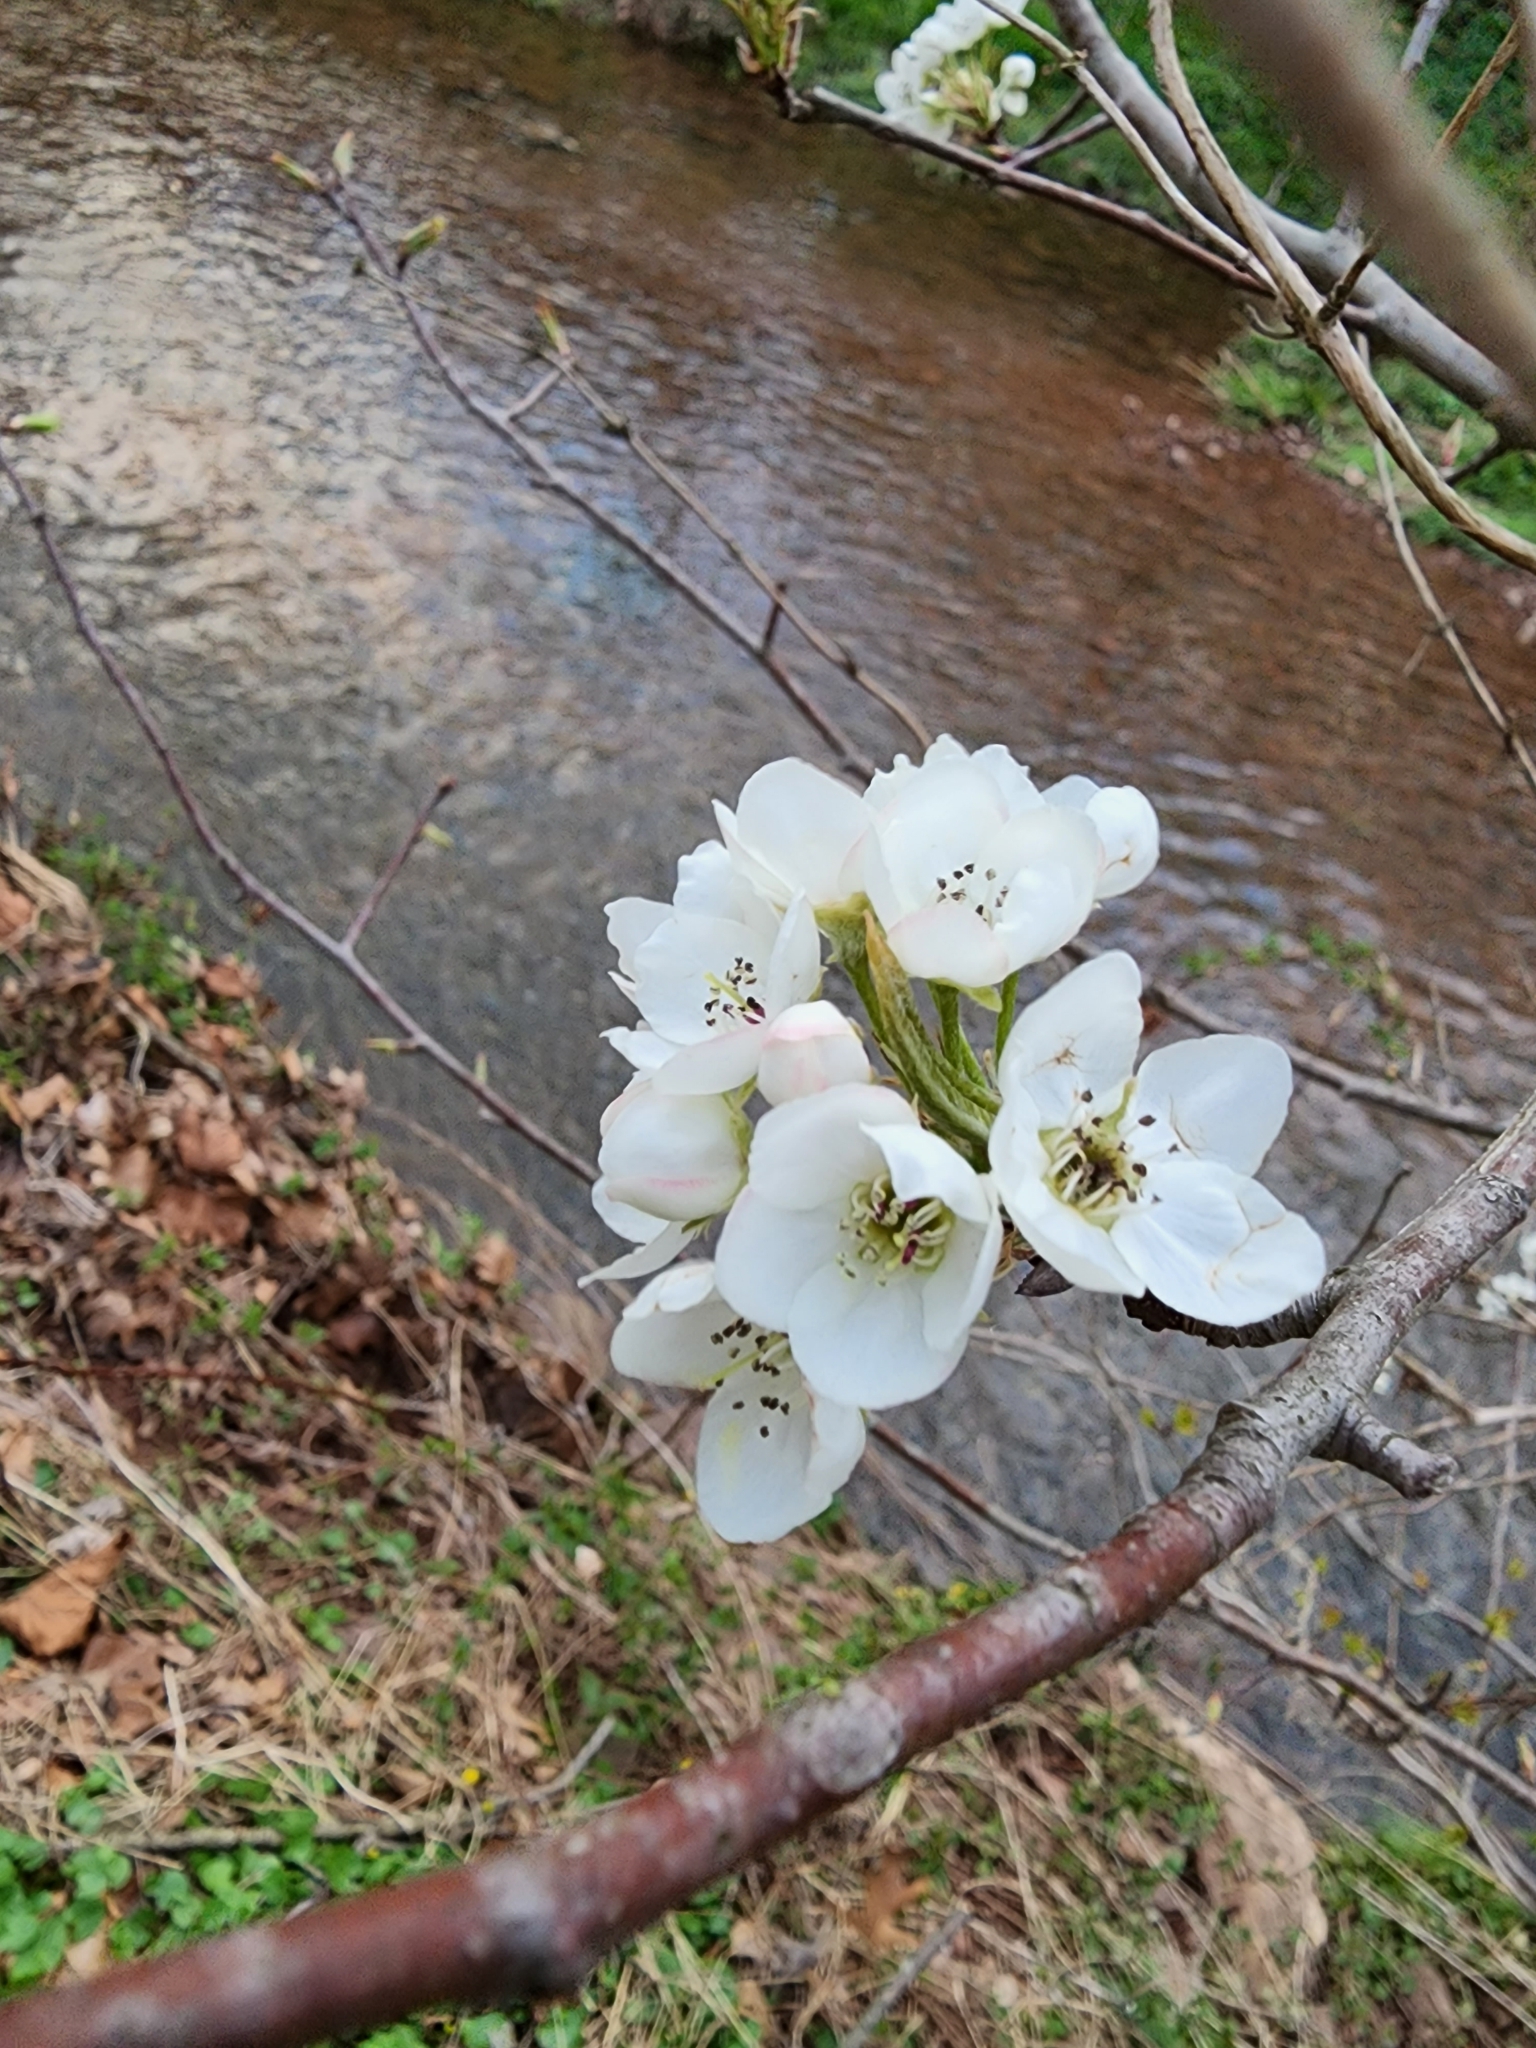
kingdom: Plantae
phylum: Tracheophyta
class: Magnoliopsida
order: Rosales
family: Rosaceae
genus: Pyrus
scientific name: Pyrus calleryana
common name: Callery pear
